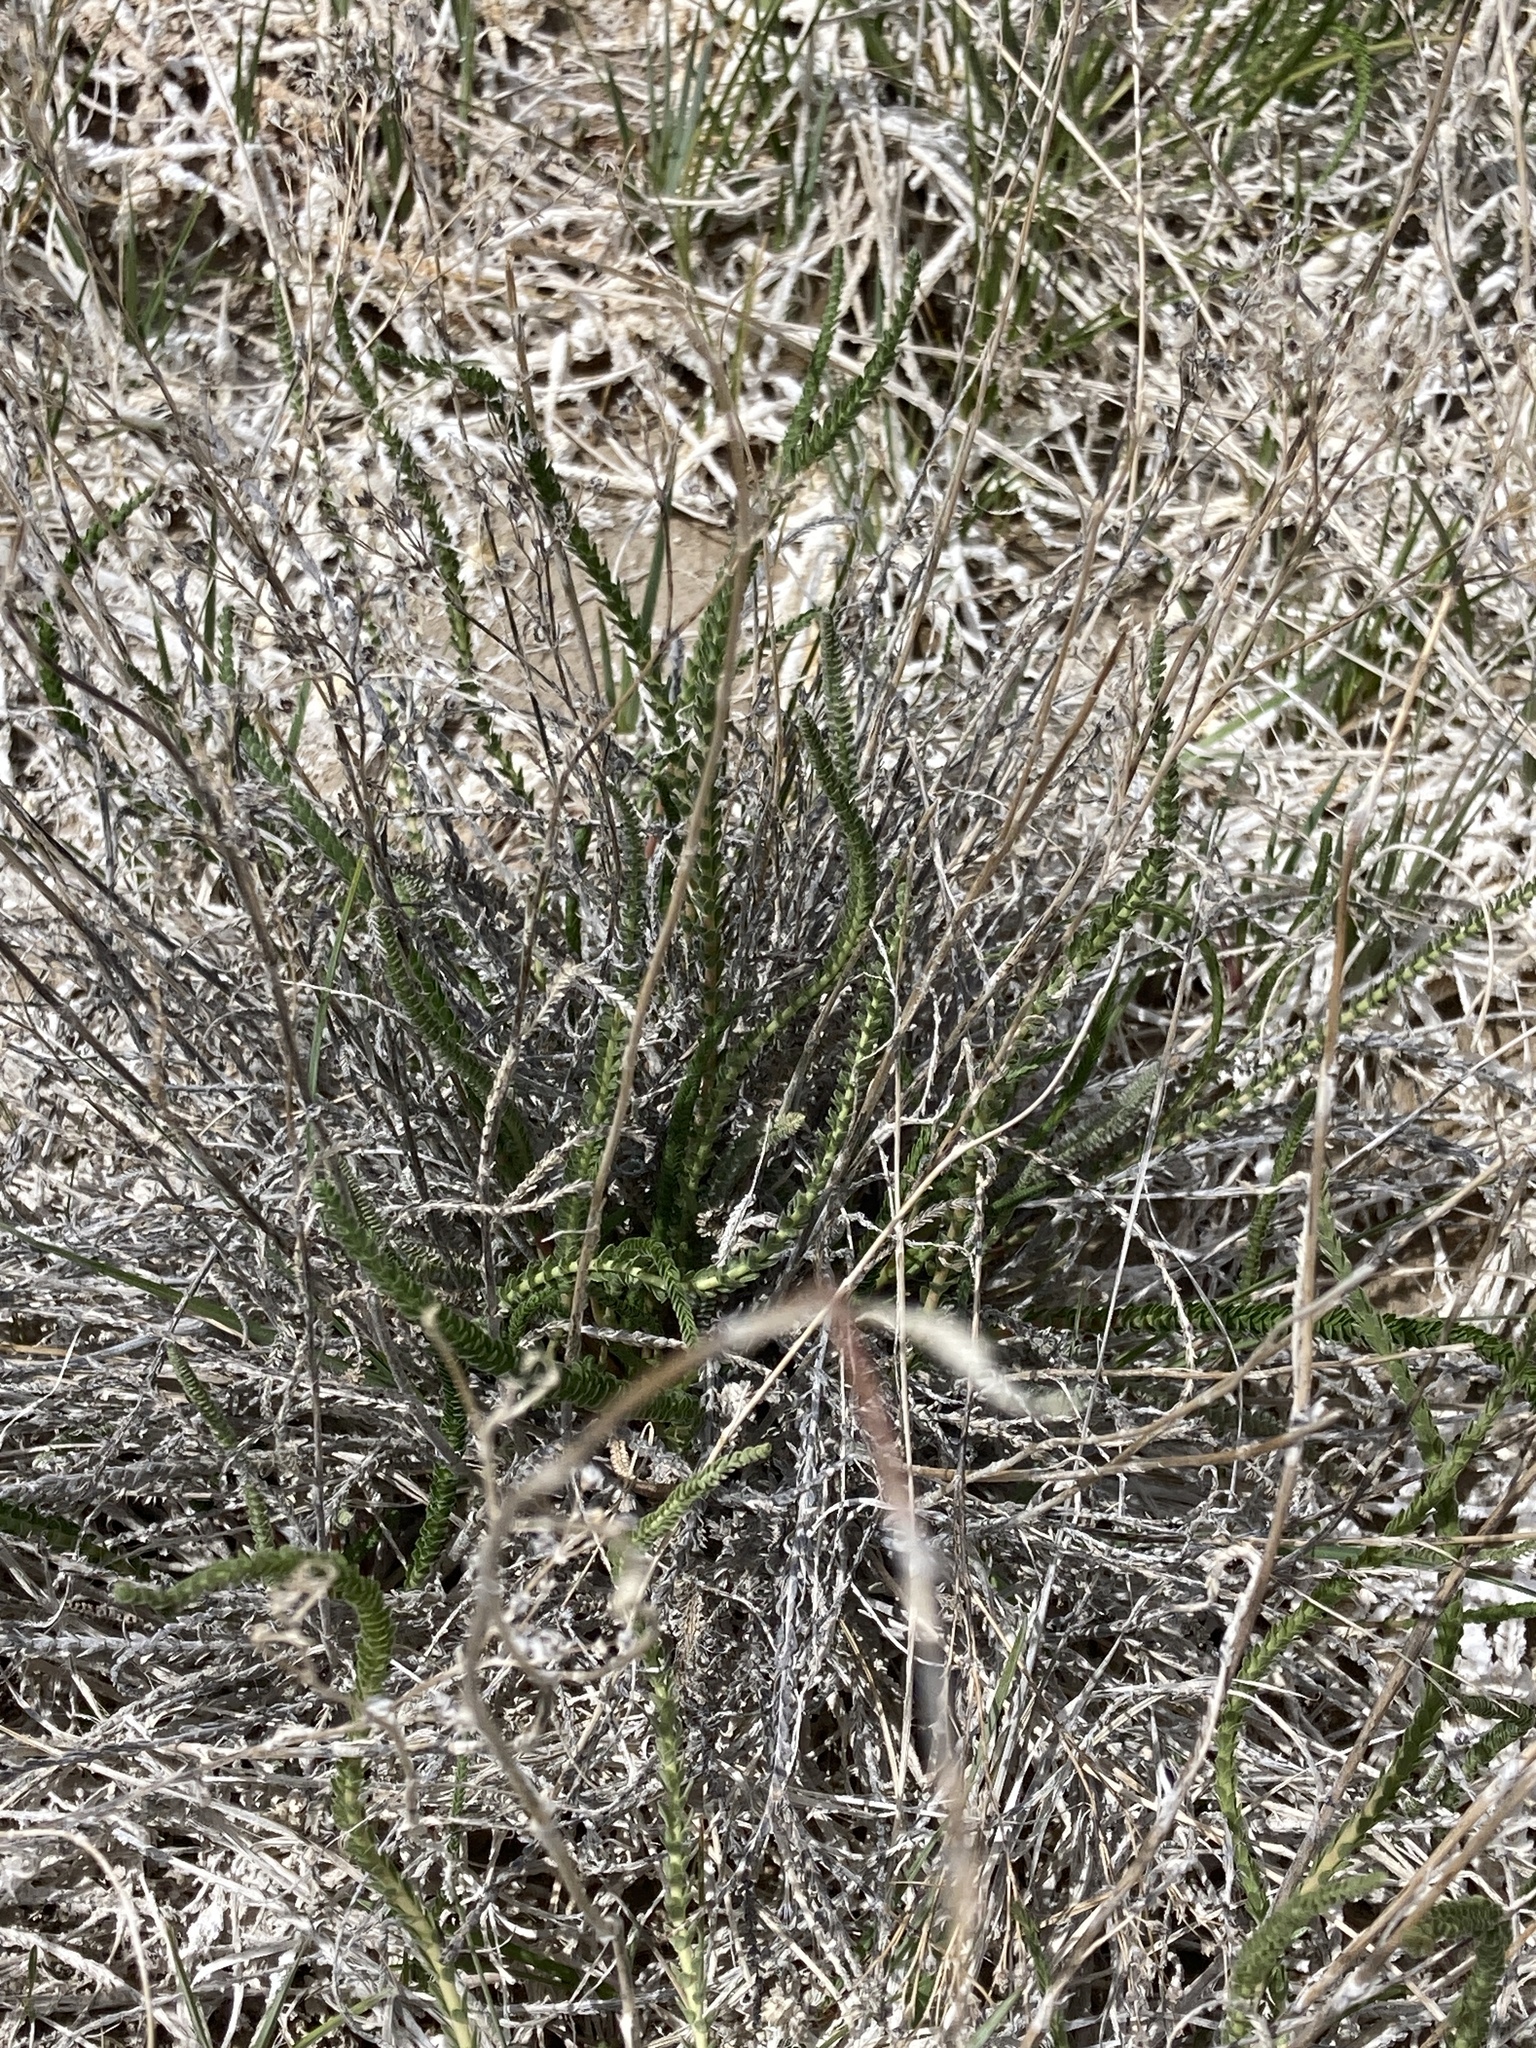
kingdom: Plantae
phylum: Tracheophyta
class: Magnoliopsida
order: Rosales
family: Rosaceae
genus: Potentilla
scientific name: Potentilla kingii
